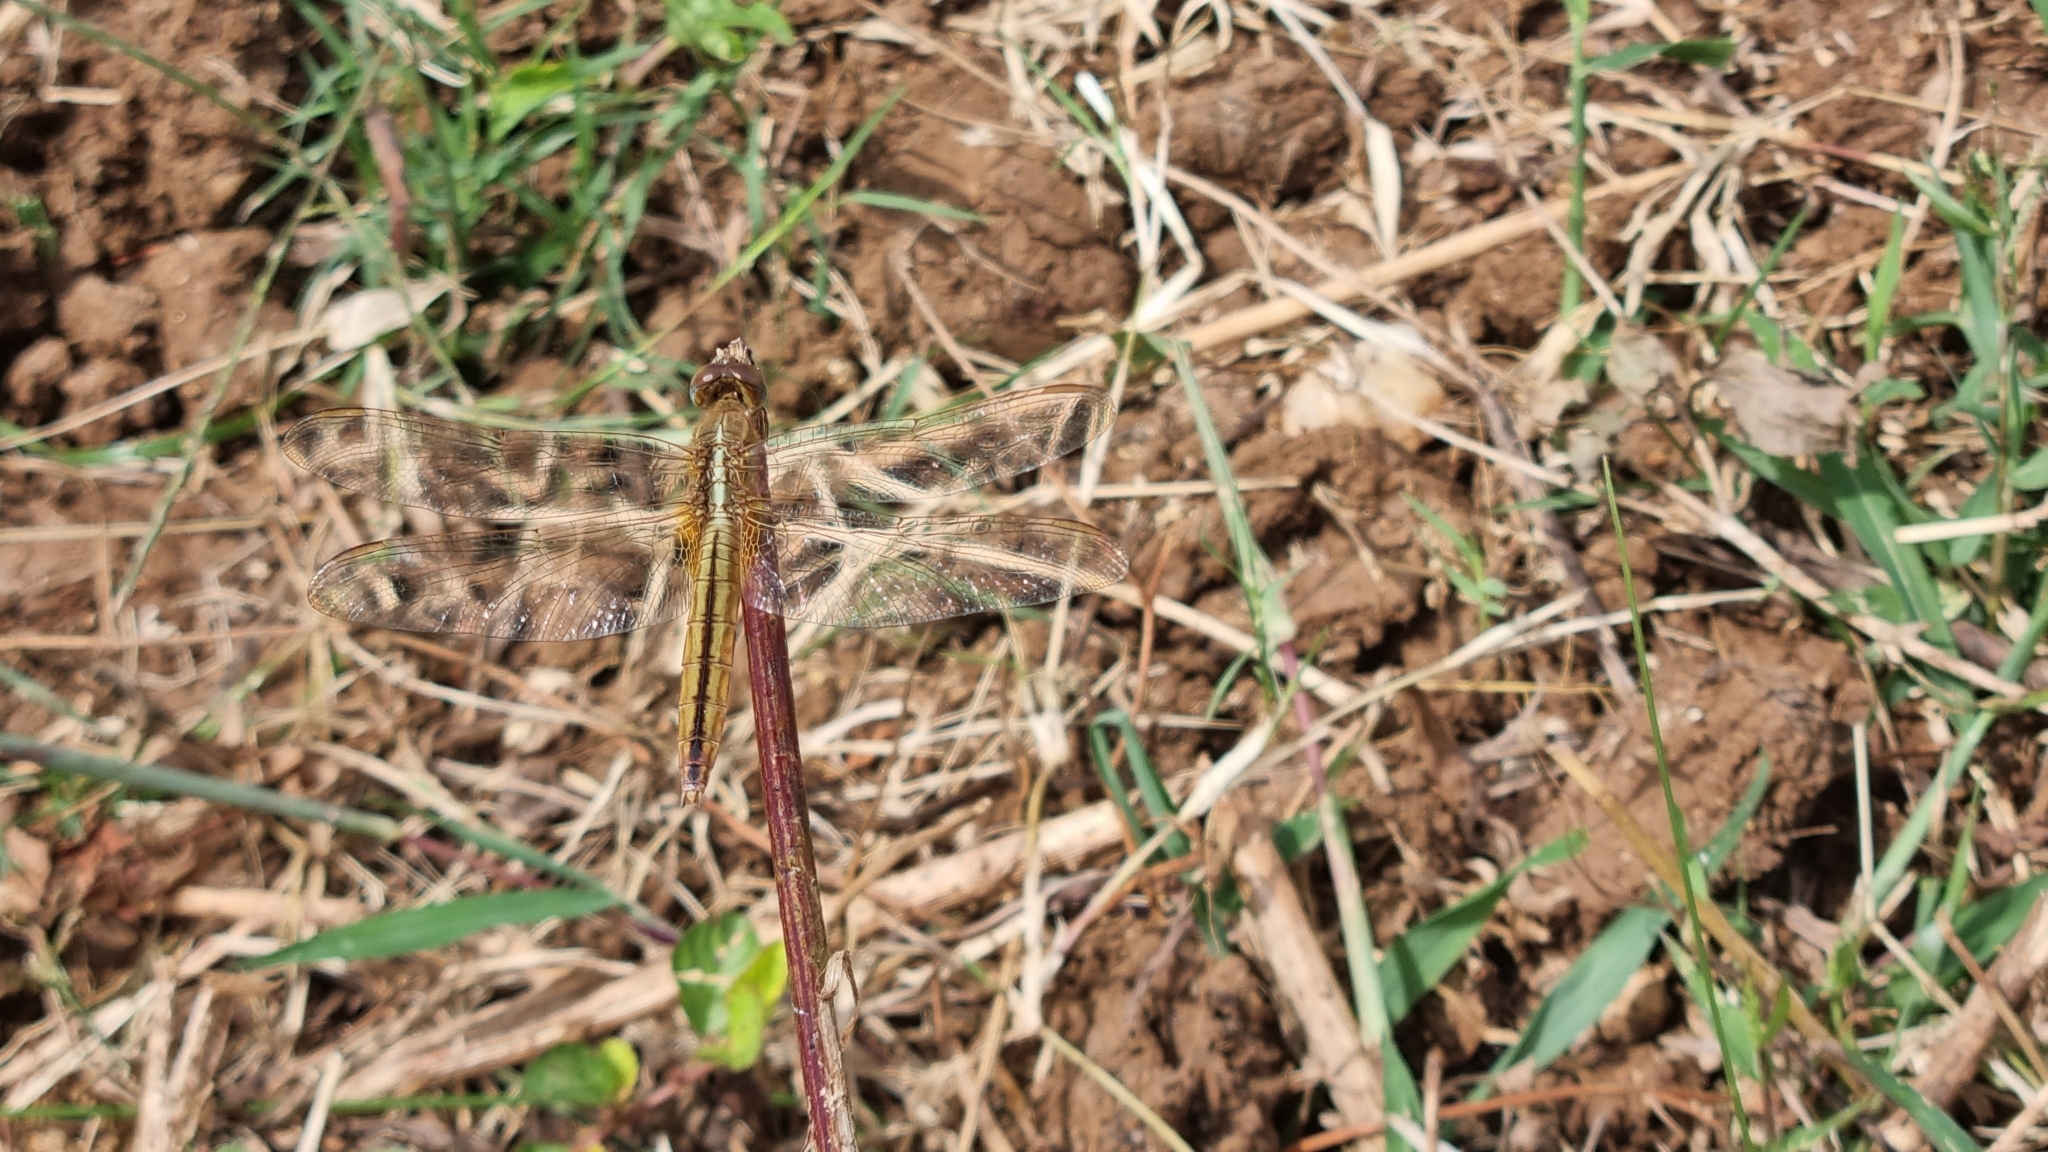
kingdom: Animalia
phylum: Arthropoda
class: Insecta
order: Odonata
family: Libellulidae
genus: Crocothemis
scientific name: Crocothemis servilia
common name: Scarlet skimmer
